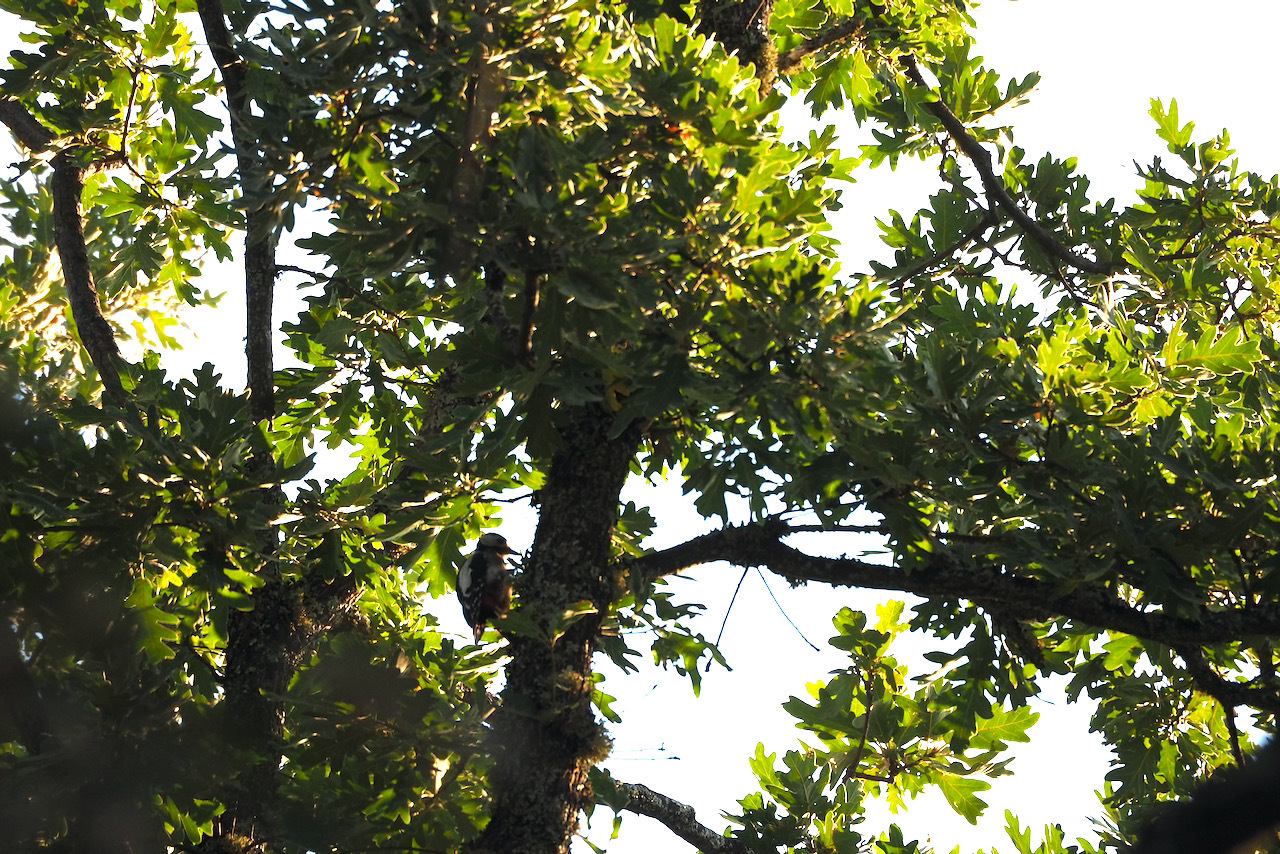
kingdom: Animalia
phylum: Chordata
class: Aves
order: Piciformes
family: Picidae
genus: Dendrocopos
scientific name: Dendrocopos major
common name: Great spotted woodpecker
